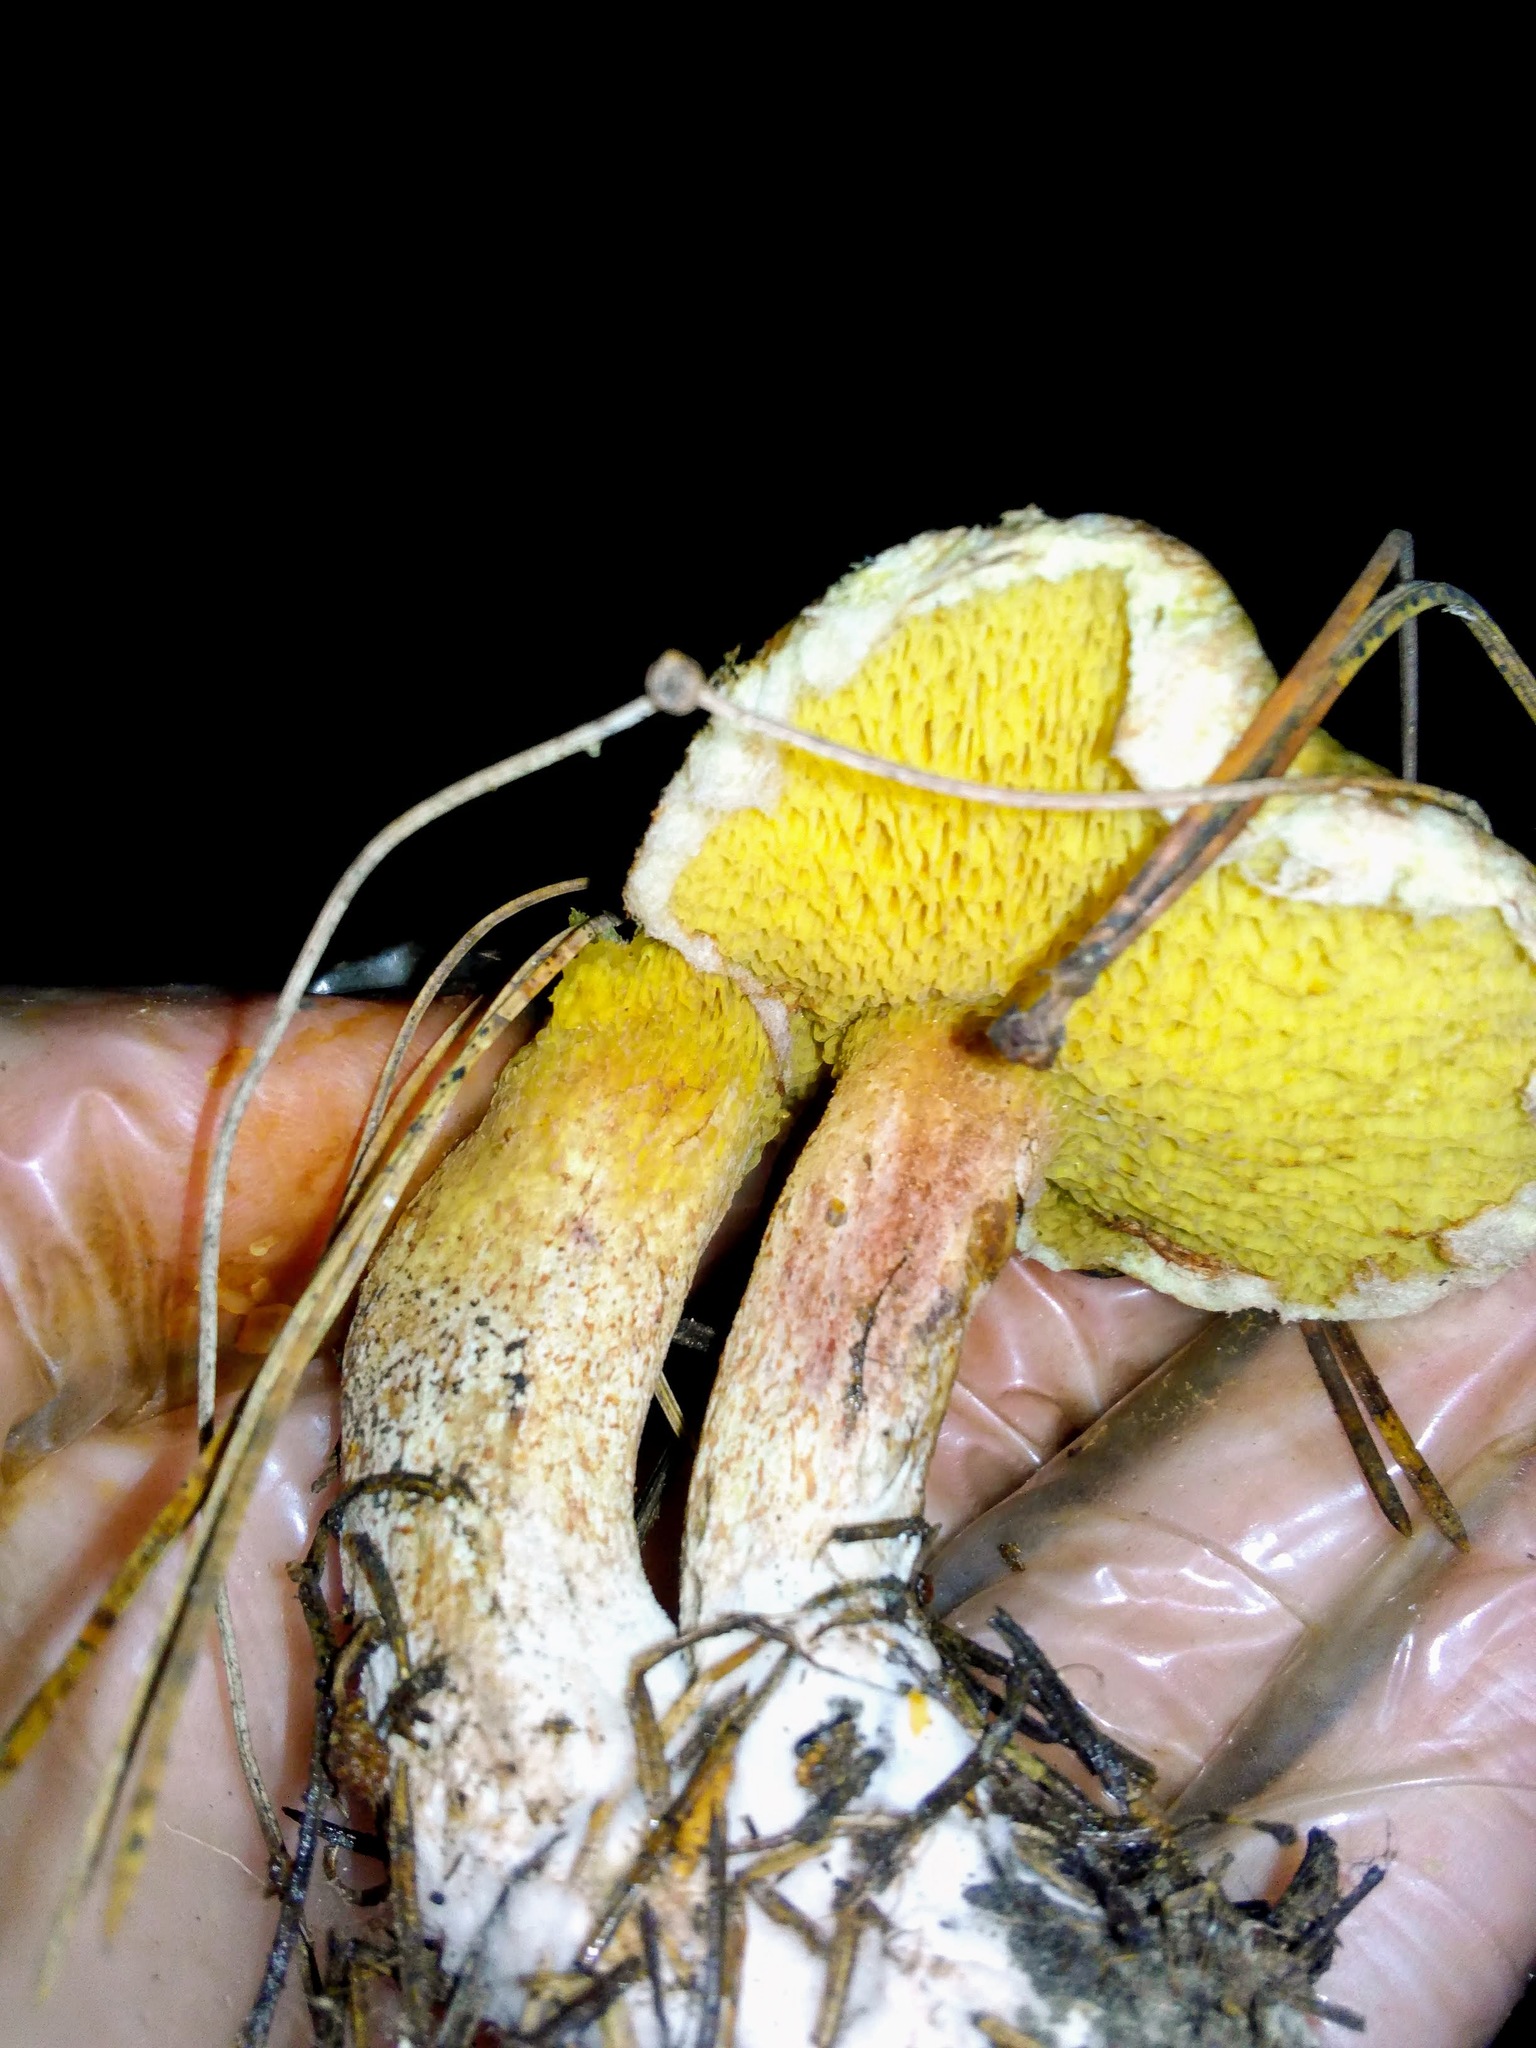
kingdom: Fungi
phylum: Basidiomycota
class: Agaricomycetes
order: Boletales
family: Suillaceae
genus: Suillus
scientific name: Suillus americanus
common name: Chicken fat mushroom
